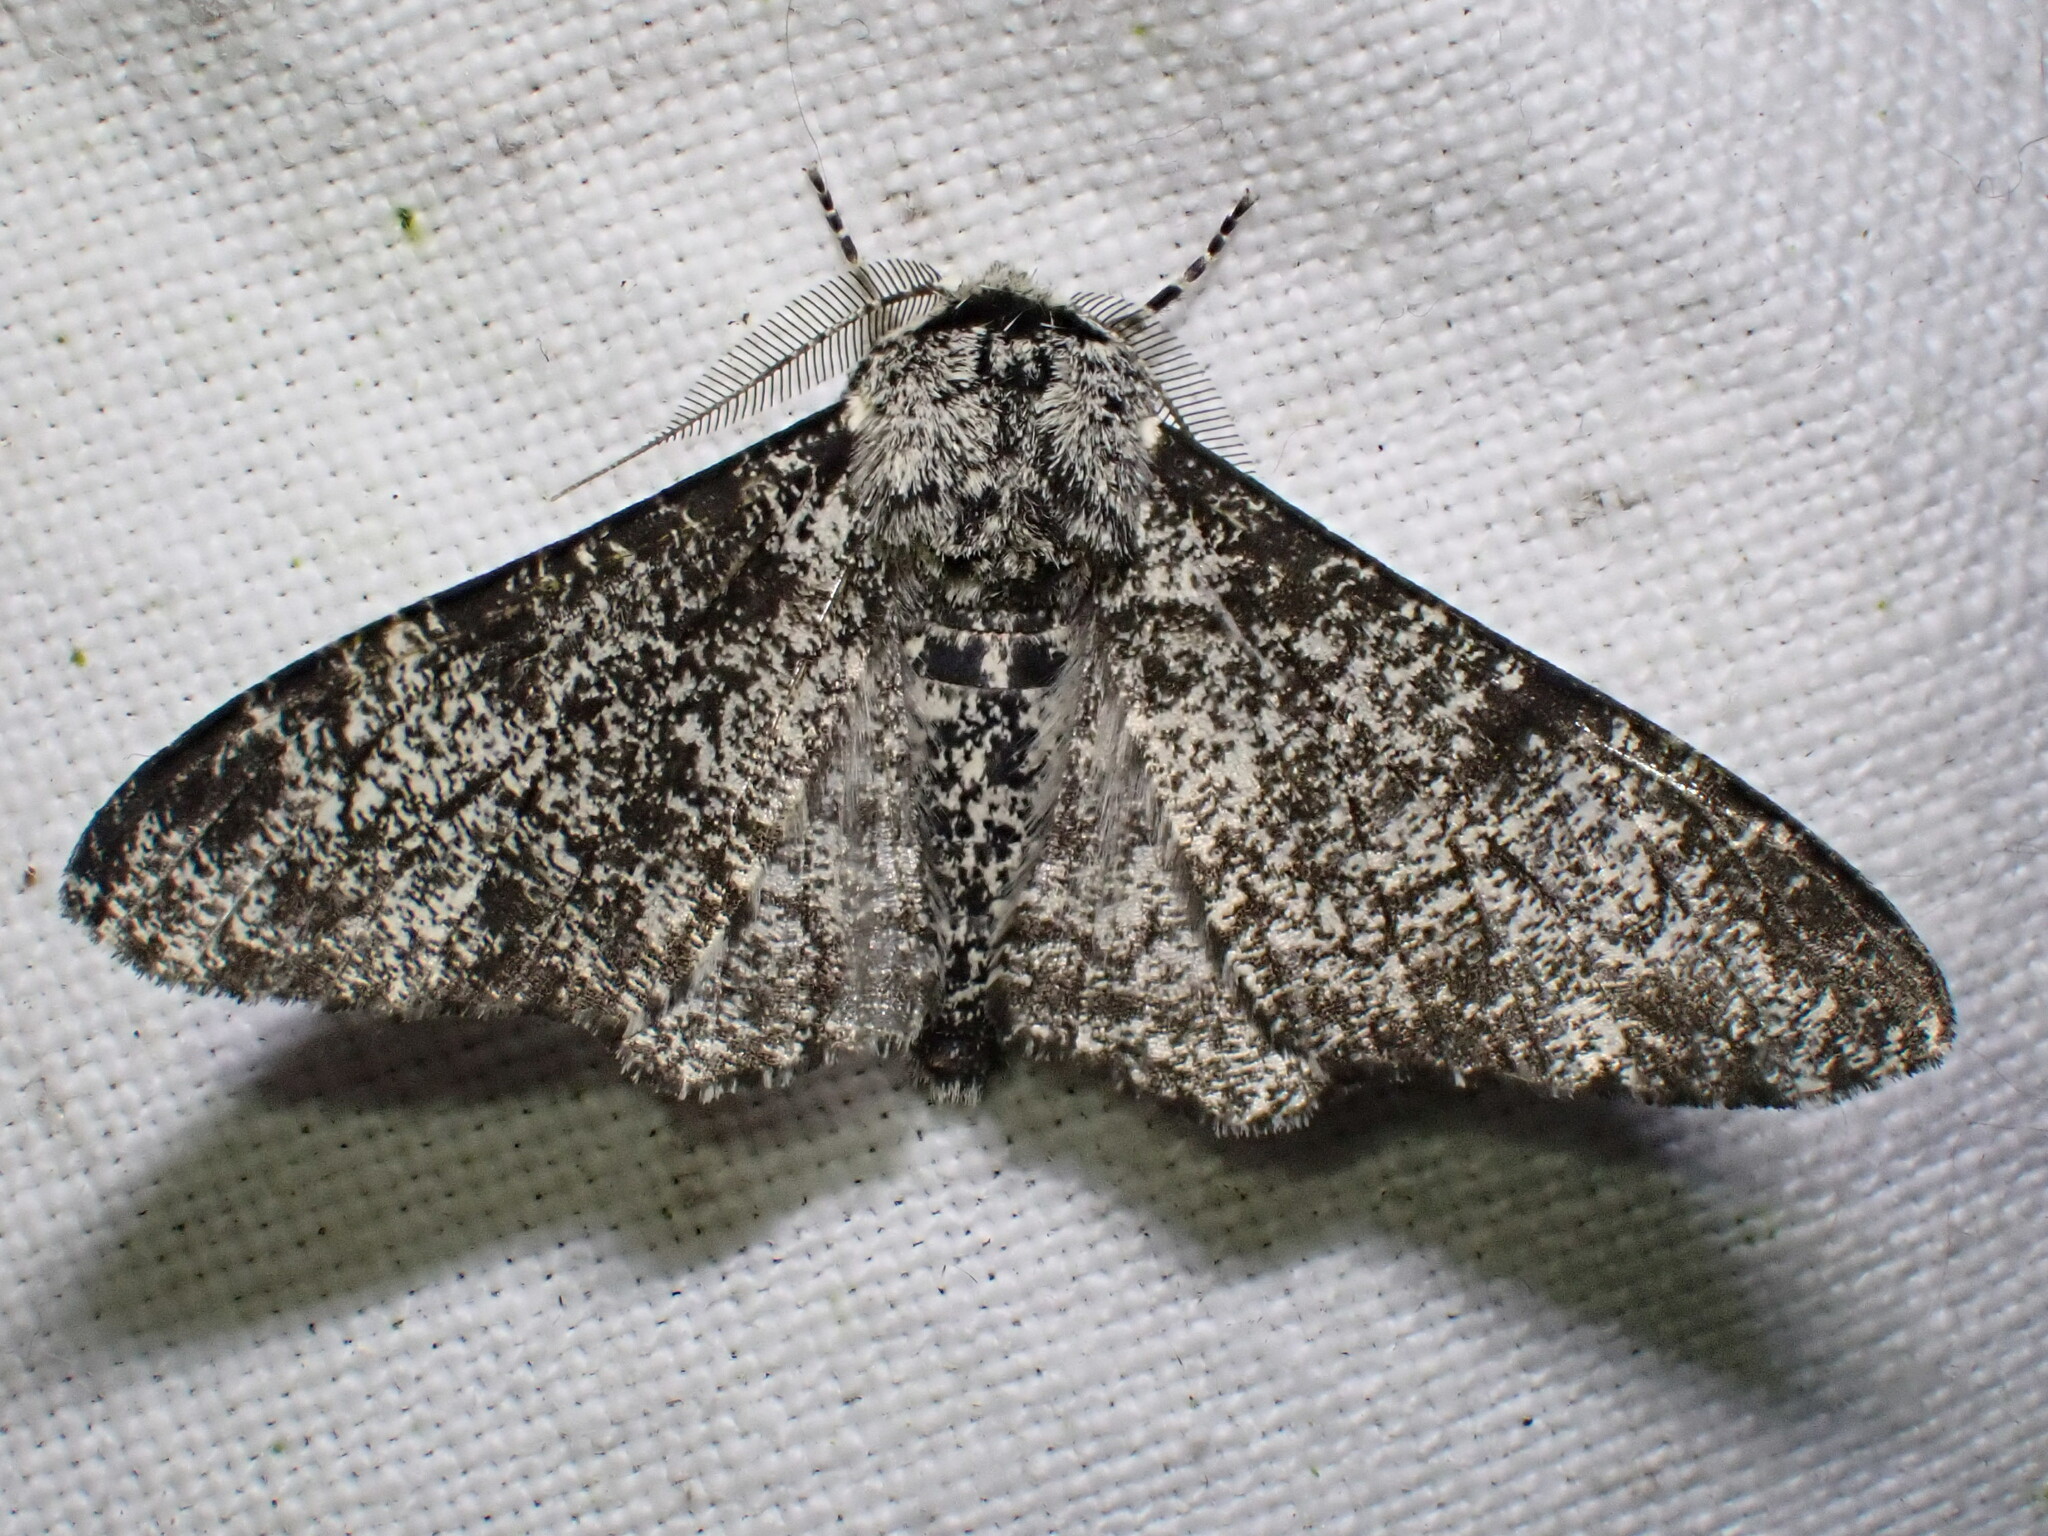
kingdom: Animalia
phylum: Arthropoda
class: Insecta
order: Lepidoptera
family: Geometridae
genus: Biston
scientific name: Biston betularia
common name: Peppered moth
